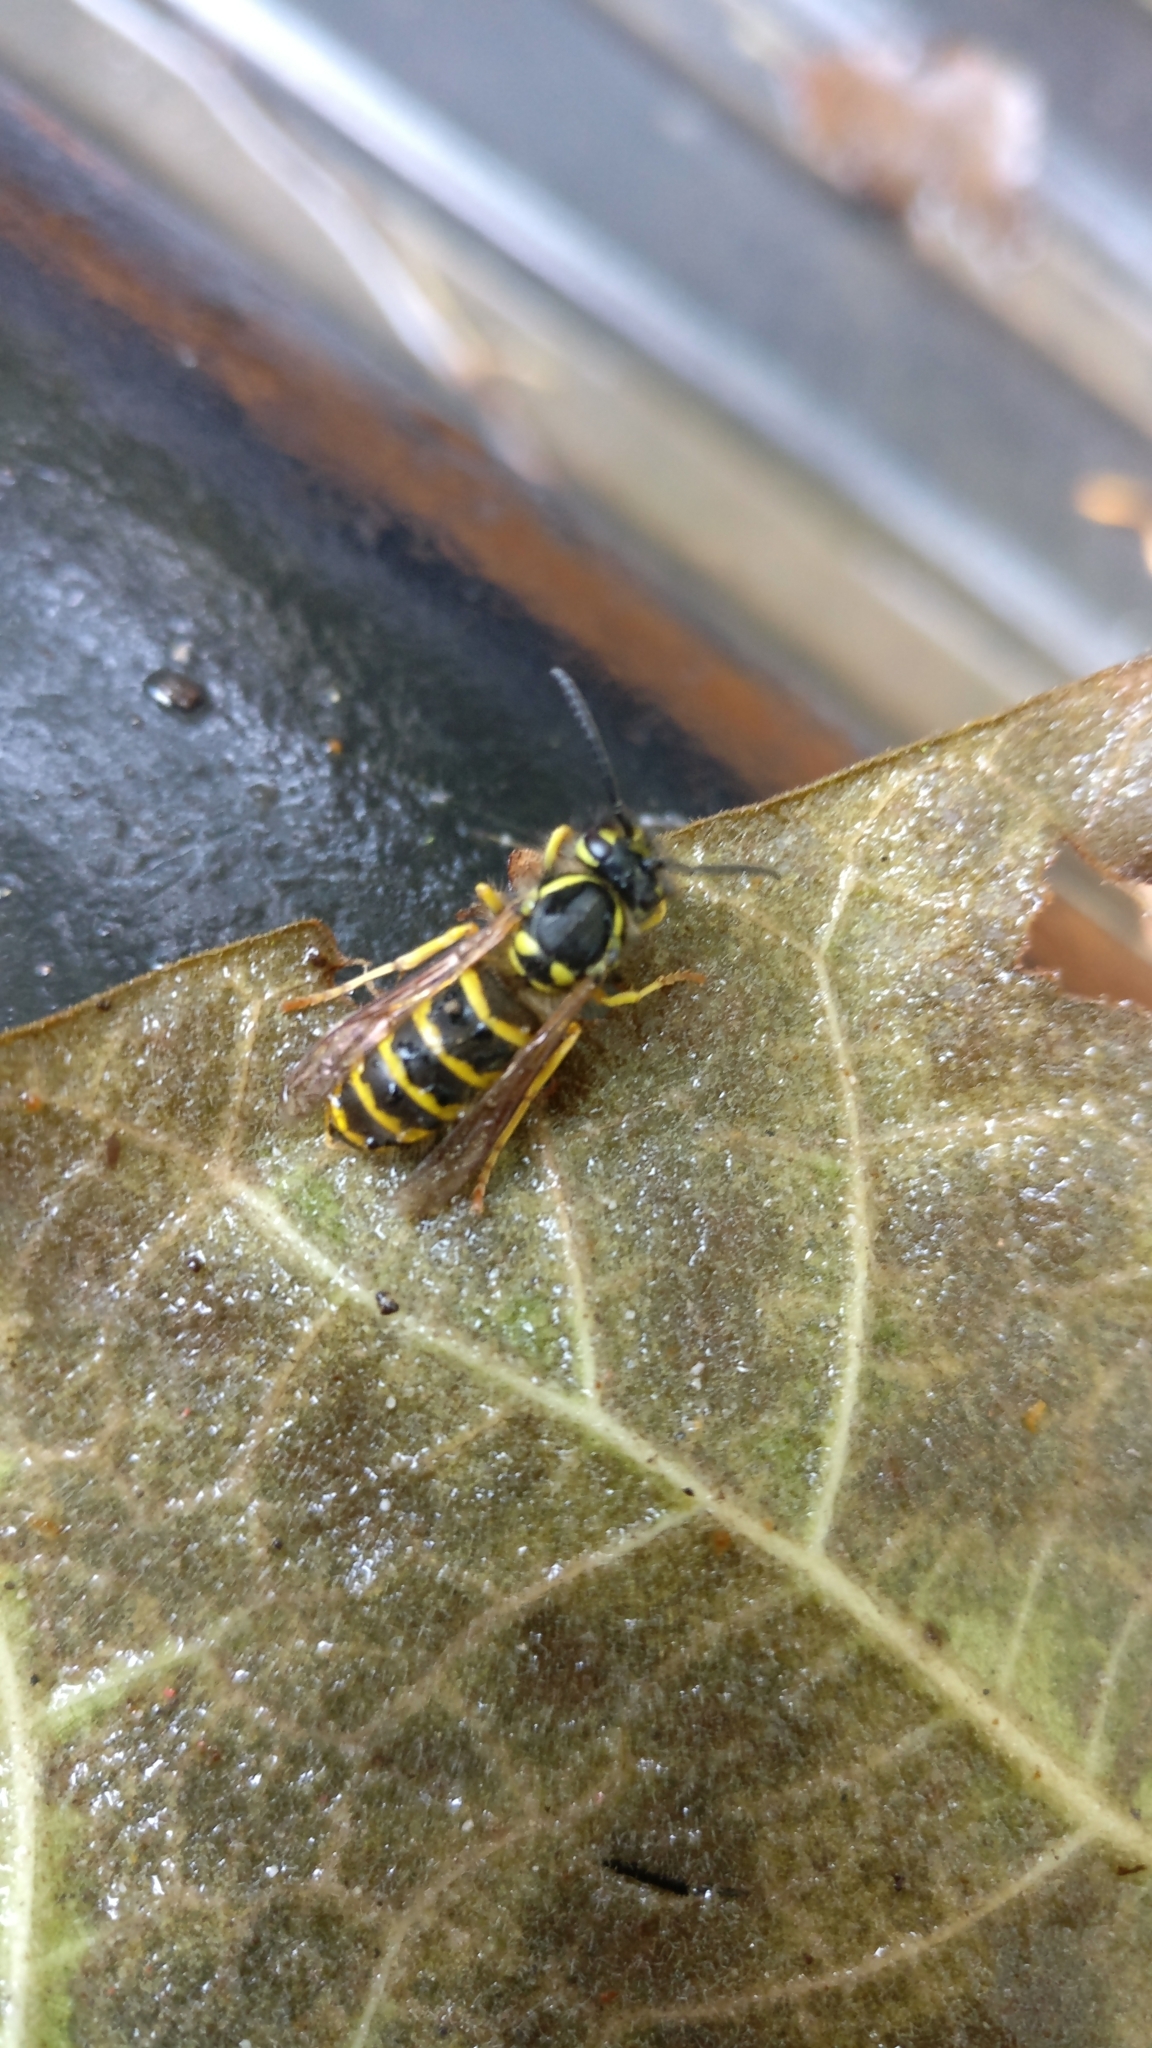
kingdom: Animalia
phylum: Arthropoda
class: Insecta
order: Hymenoptera
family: Vespidae
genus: Vespula
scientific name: Vespula vulgaris
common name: Common wasp
